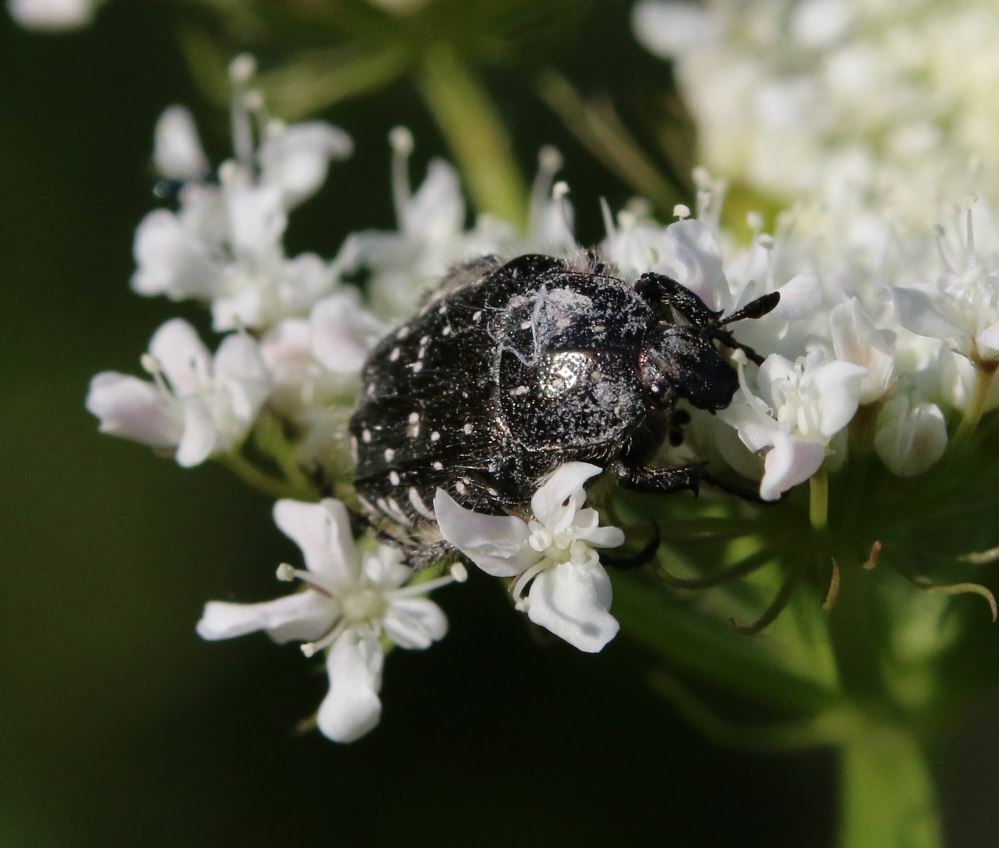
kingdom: Animalia
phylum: Arthropoda
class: Insecta
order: Coleoptera
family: Scarabaeidae
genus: Oxythyrea
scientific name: Oxythyrea funesta
